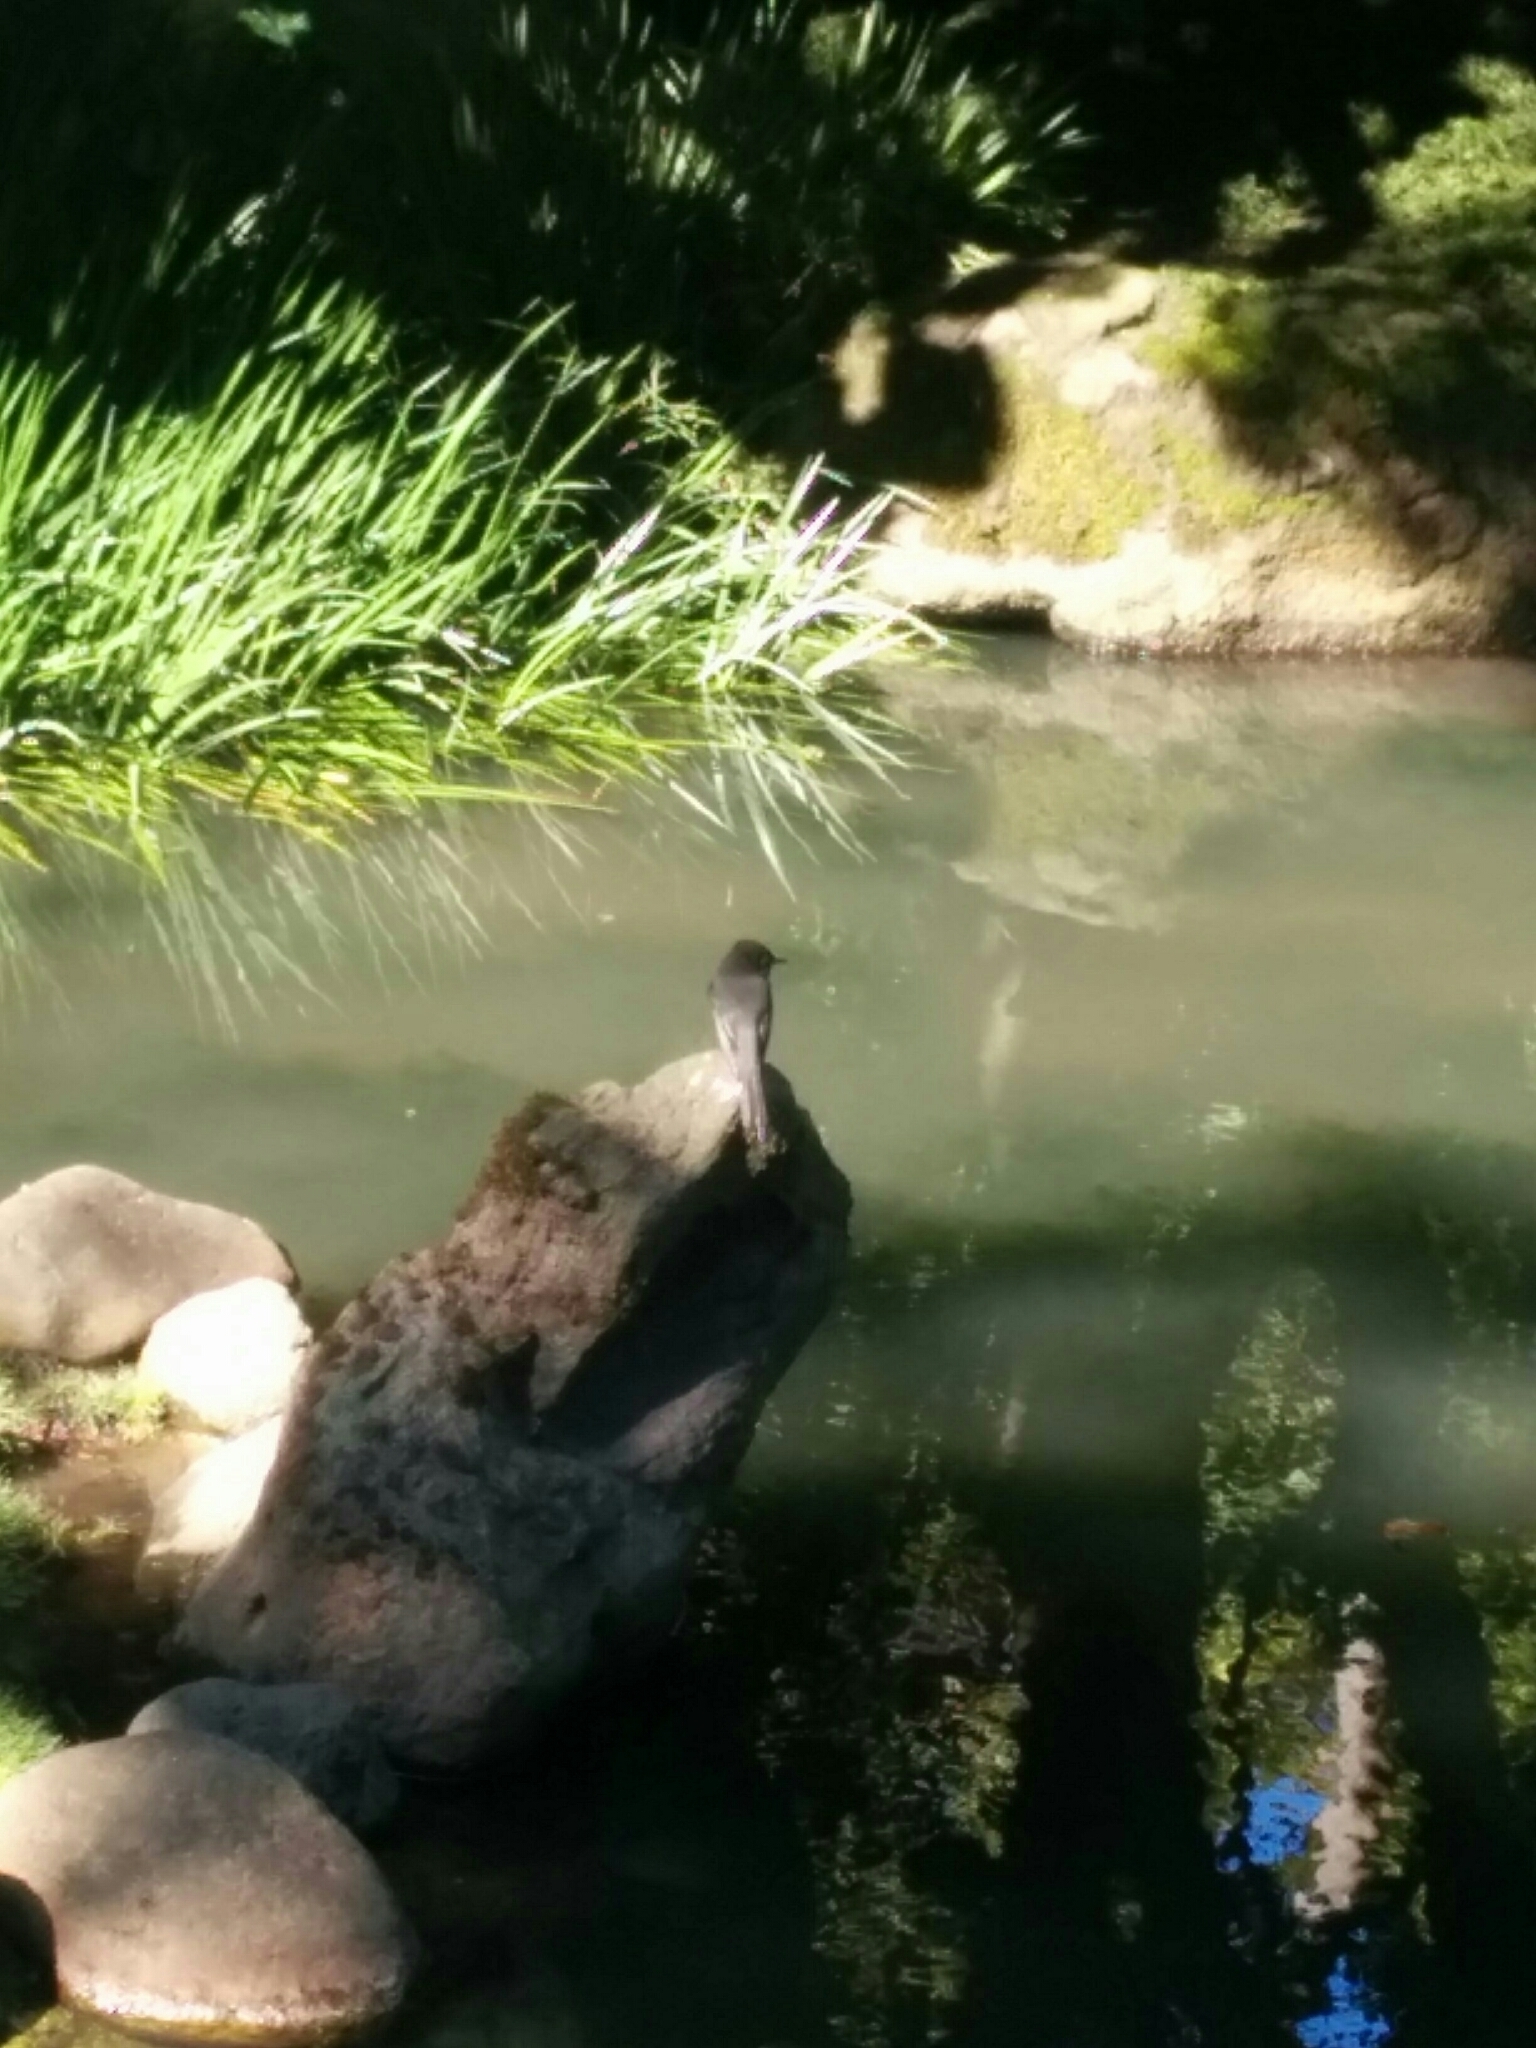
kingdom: Animalia
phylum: Chordata
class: Aves
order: Passeriformes
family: Tyrannidae
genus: Sayornis
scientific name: Sayornis nigricans
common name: Black phoebe
